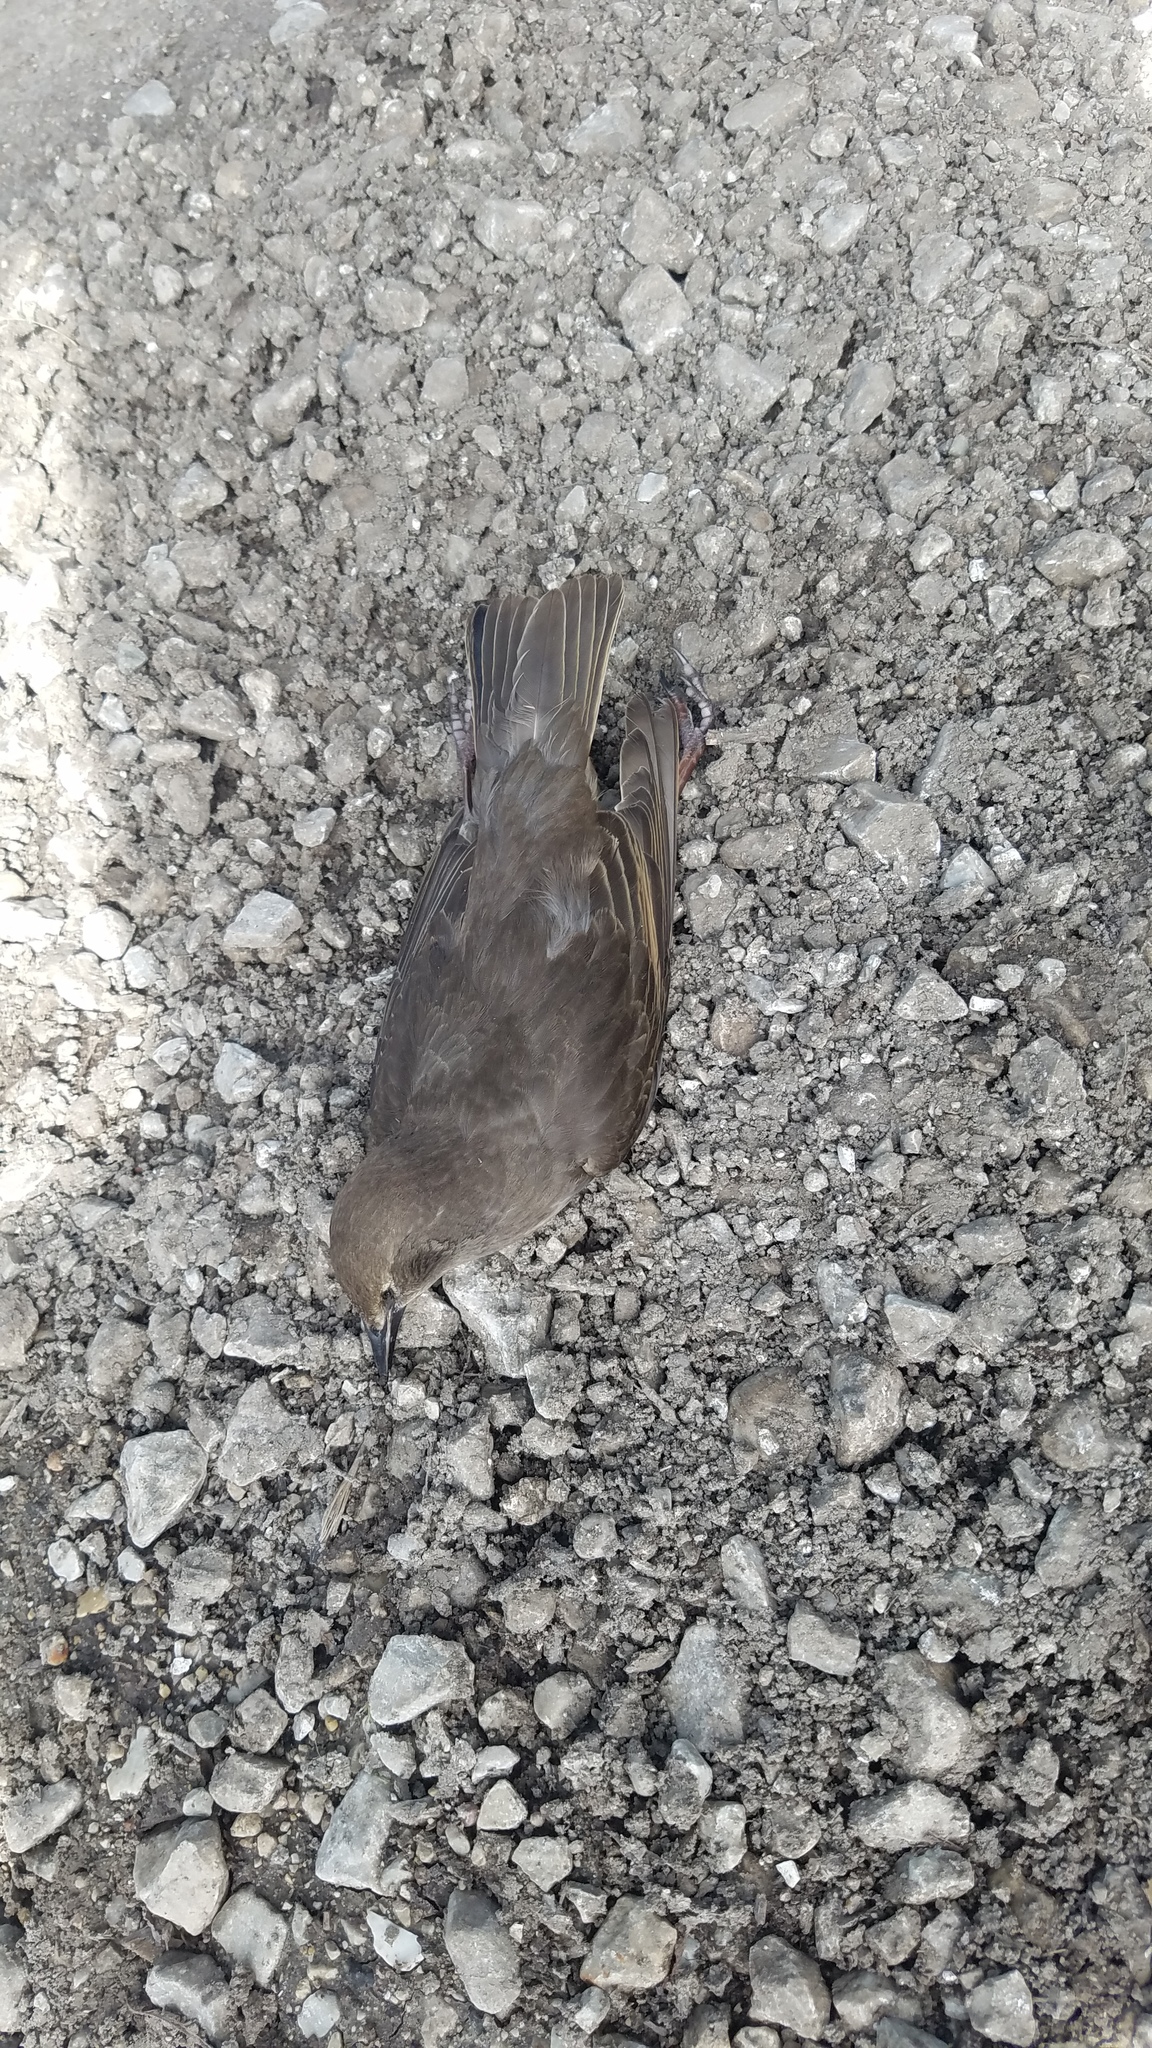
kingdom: Animalia
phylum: Chordata
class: Aves
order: Passeriformes
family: Sturnidae
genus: Sturnus
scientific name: Sturnus vulgaris
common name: Common starling
